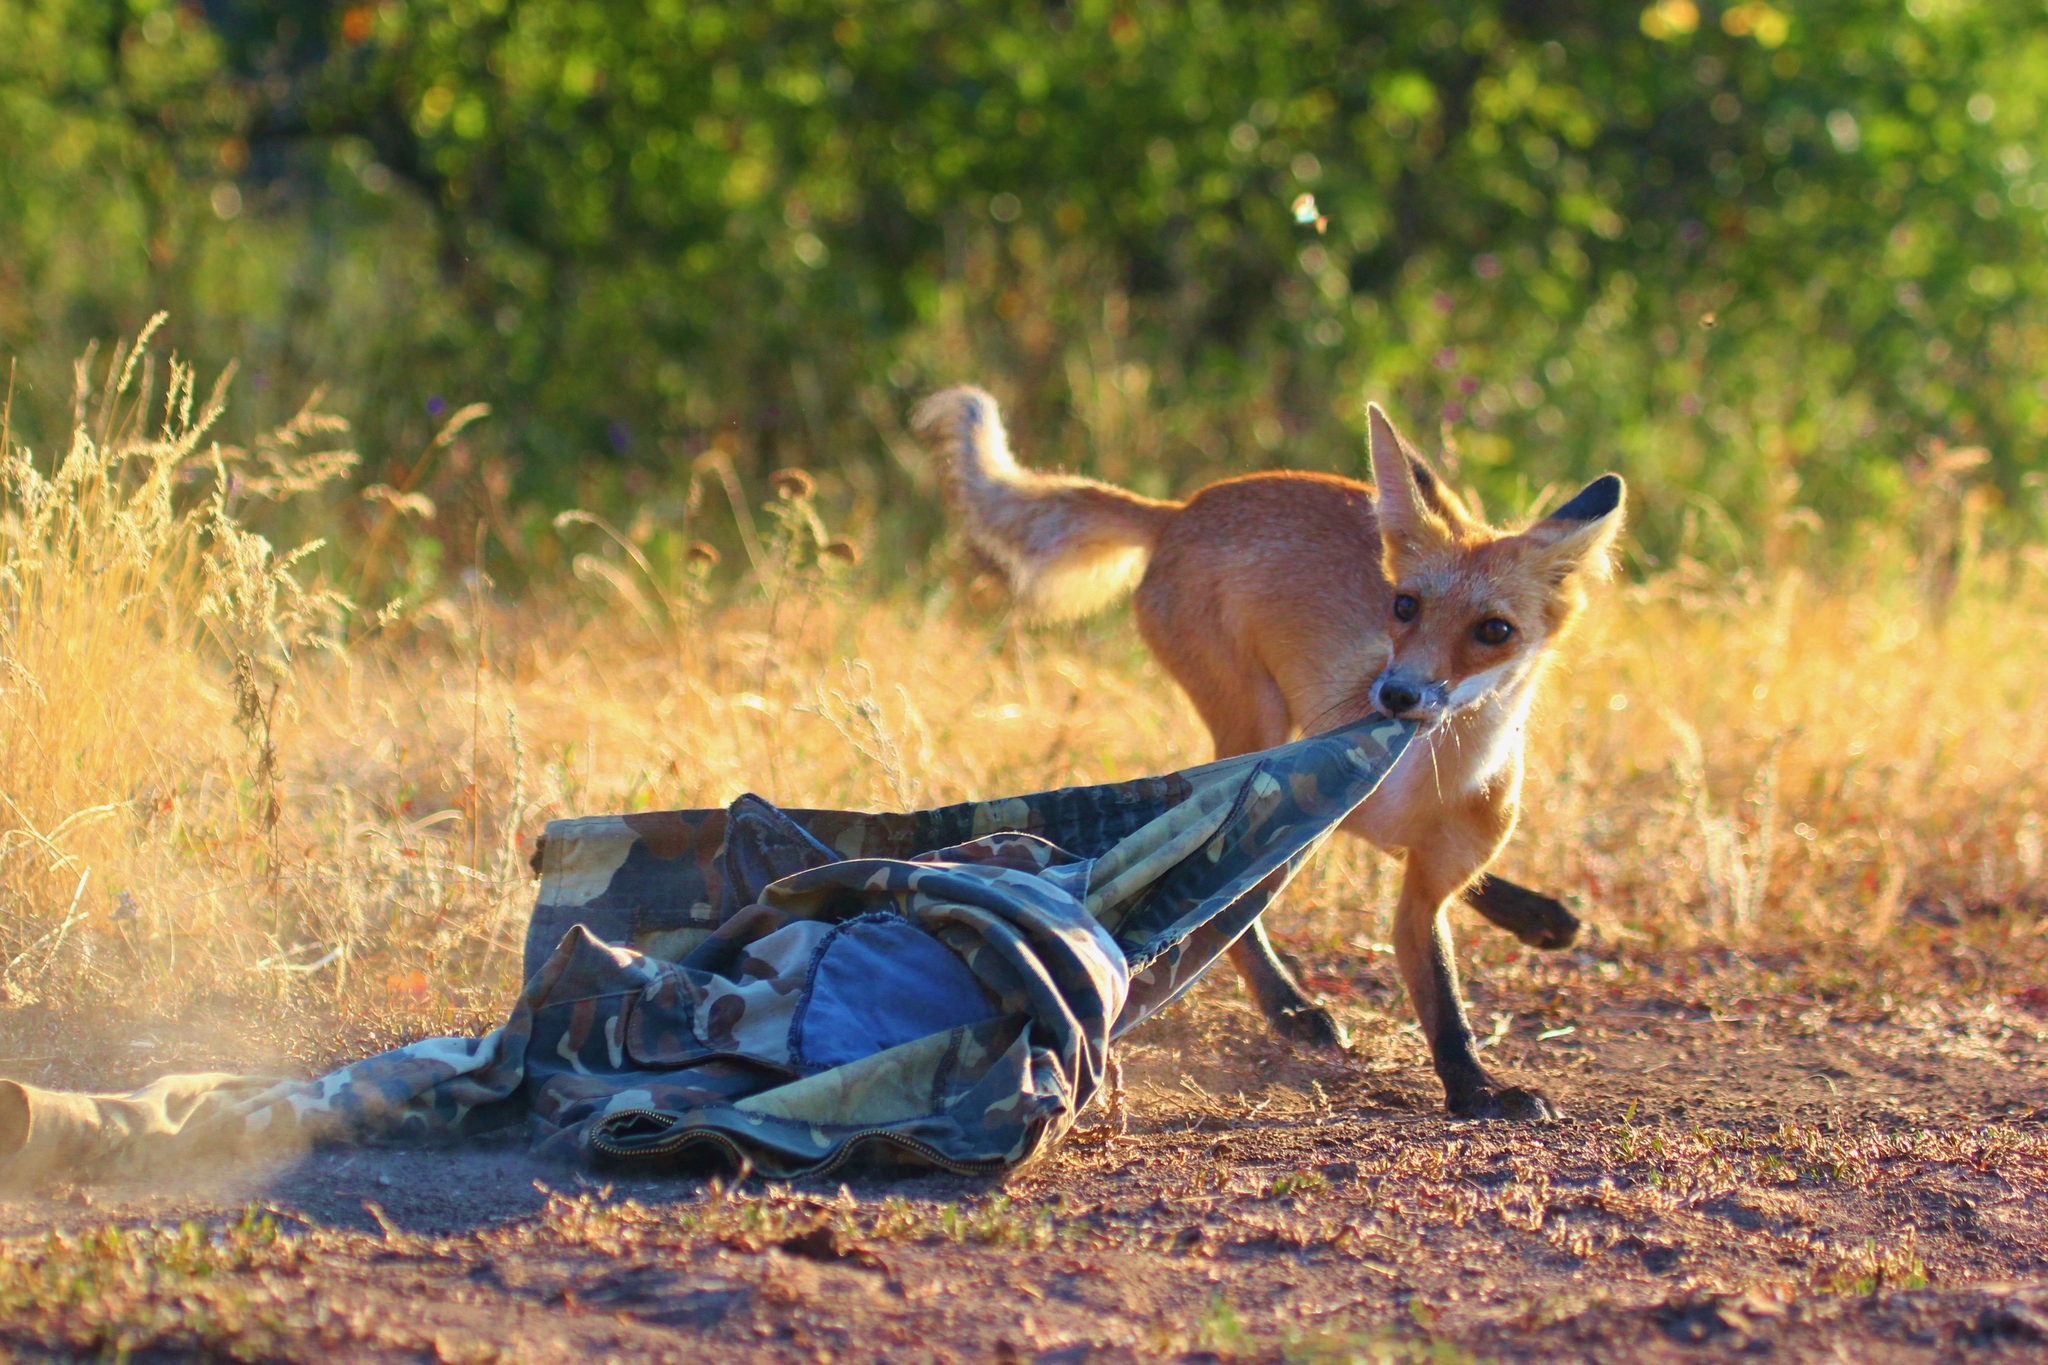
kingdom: Animalia
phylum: Chordata
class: Mammalia
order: Carnivora
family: Canidae
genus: Vulpes
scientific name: Vulpes vulpes
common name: Red fox
